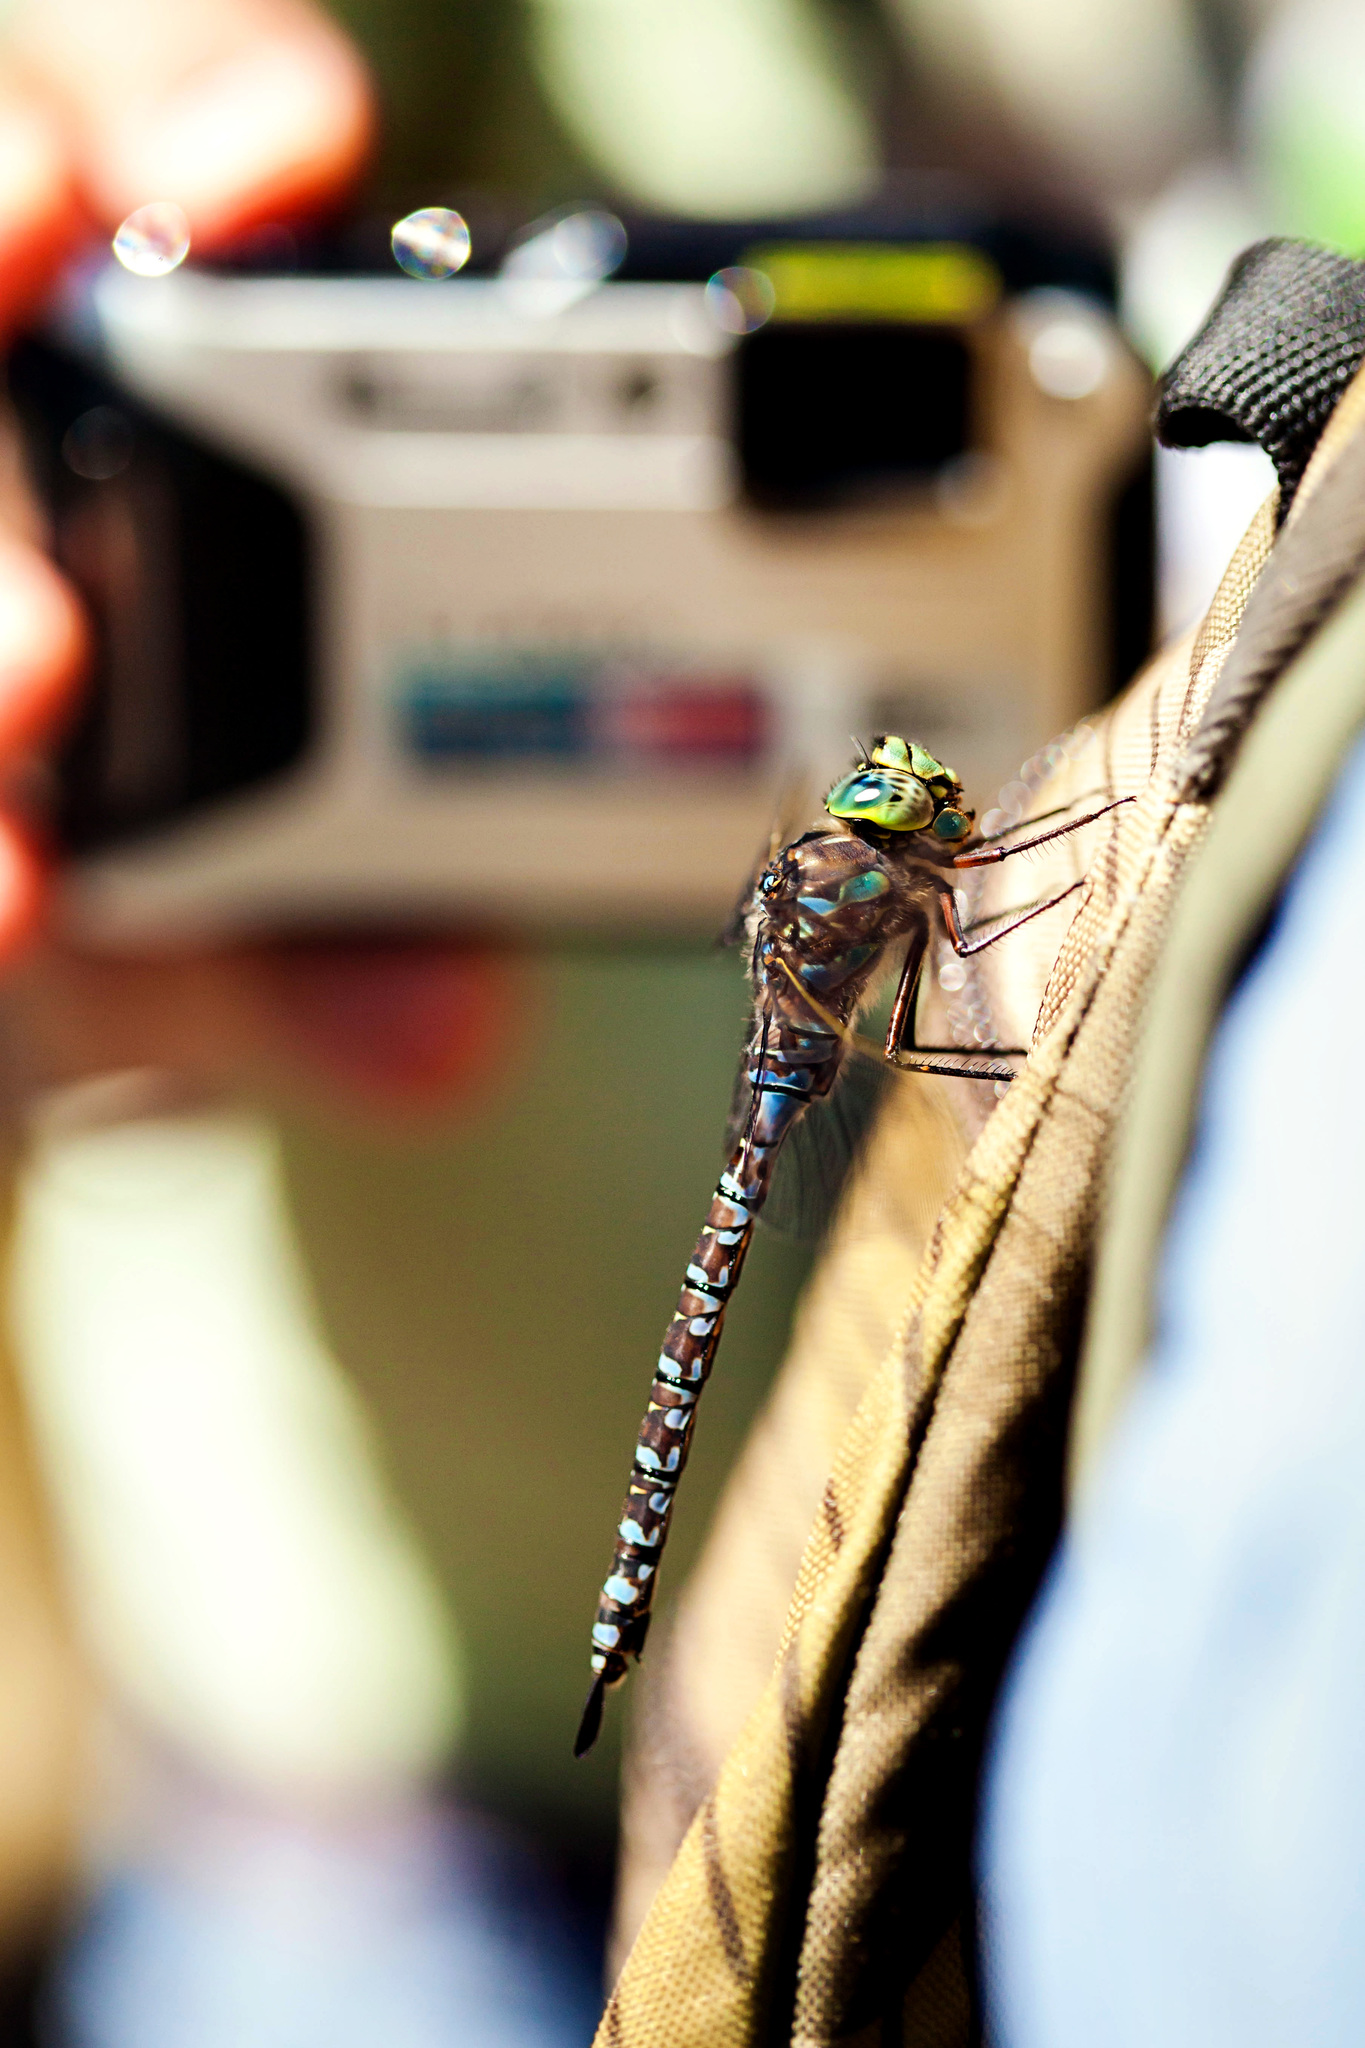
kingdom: Animalia
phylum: Arthropoda
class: Insecta
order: Odonata
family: Aeshnidae
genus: Aeshna
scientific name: Aeshna eremita
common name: Lake darner
